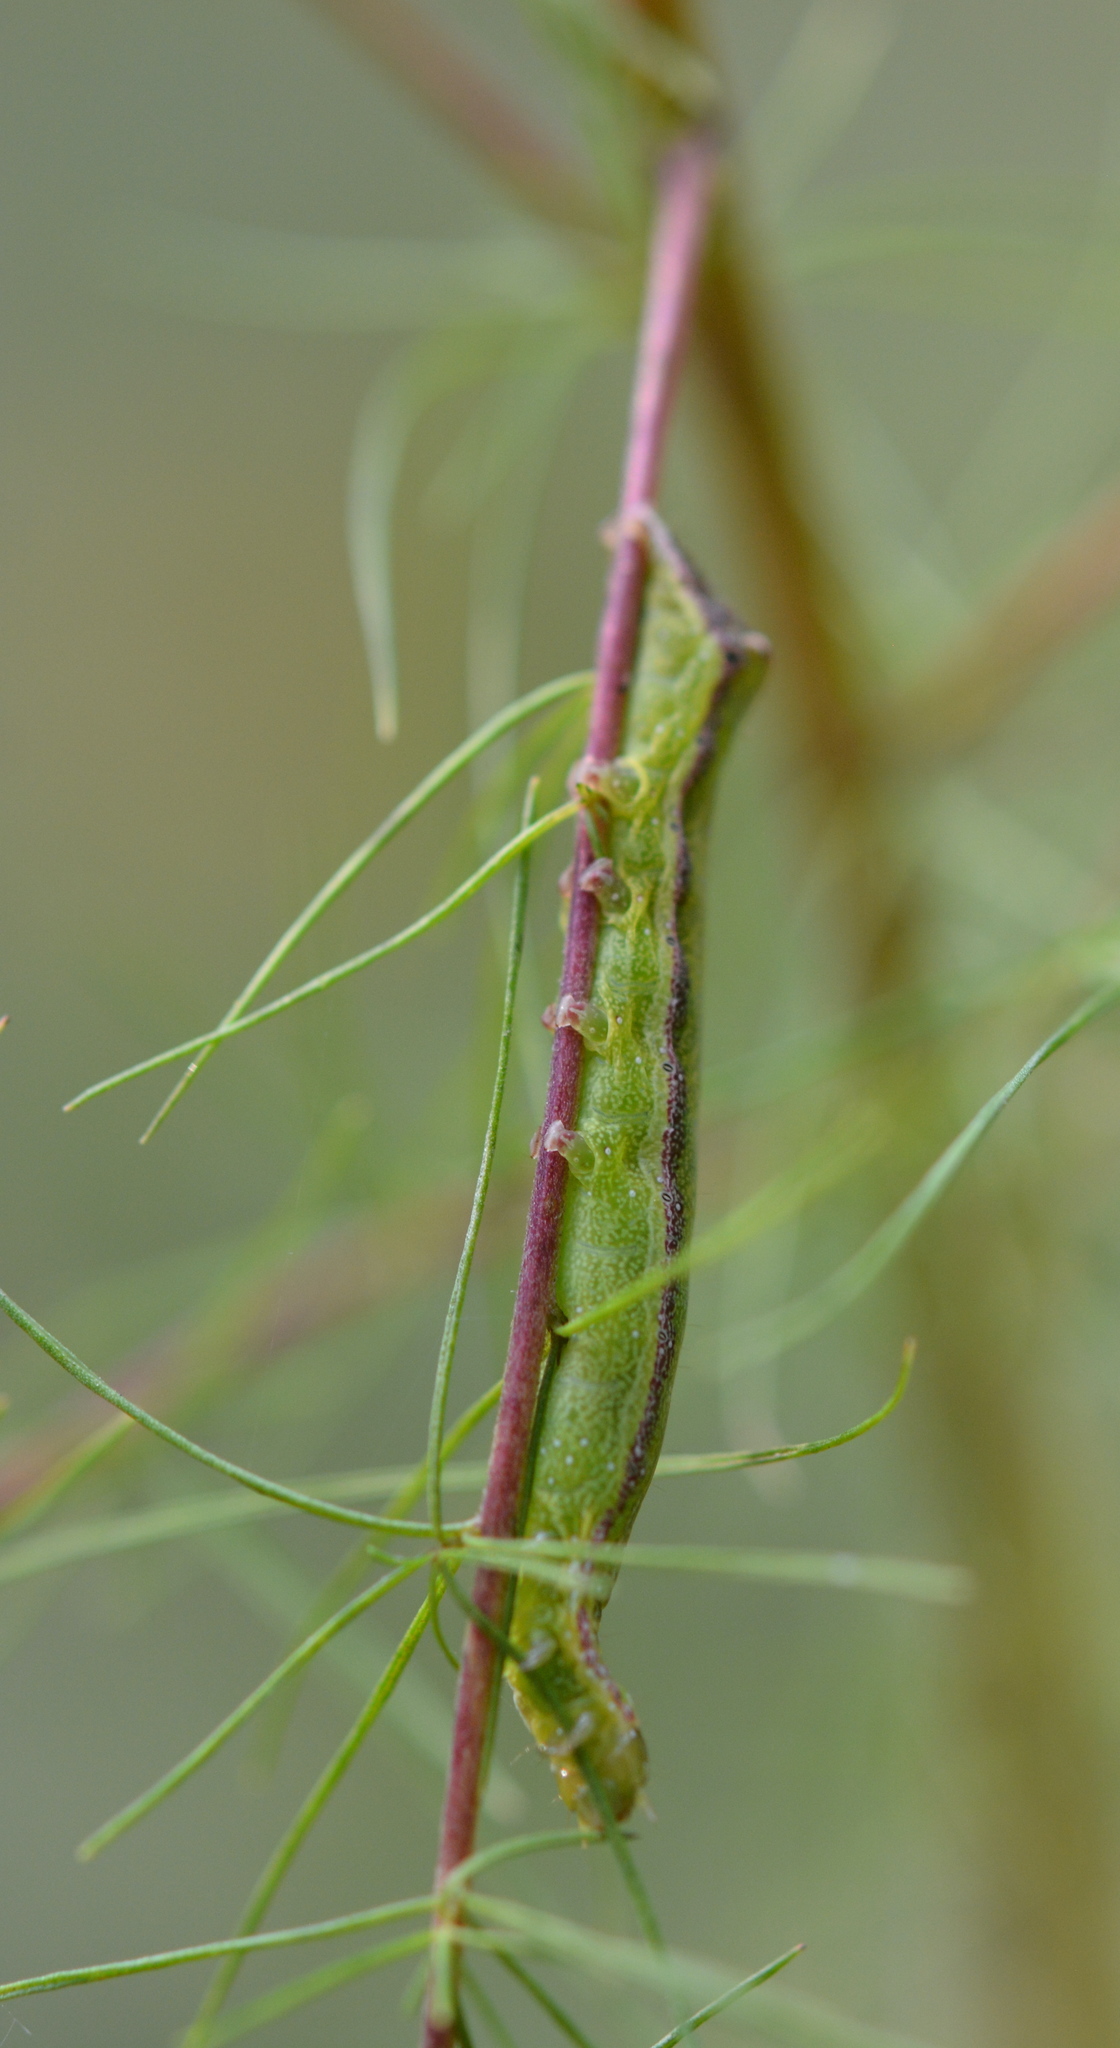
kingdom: Animalia
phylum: Arthropoda
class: Insecta
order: Lepidoptera
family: Noctuidae
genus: Condica
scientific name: Condica vecors
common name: Dusky groundling
